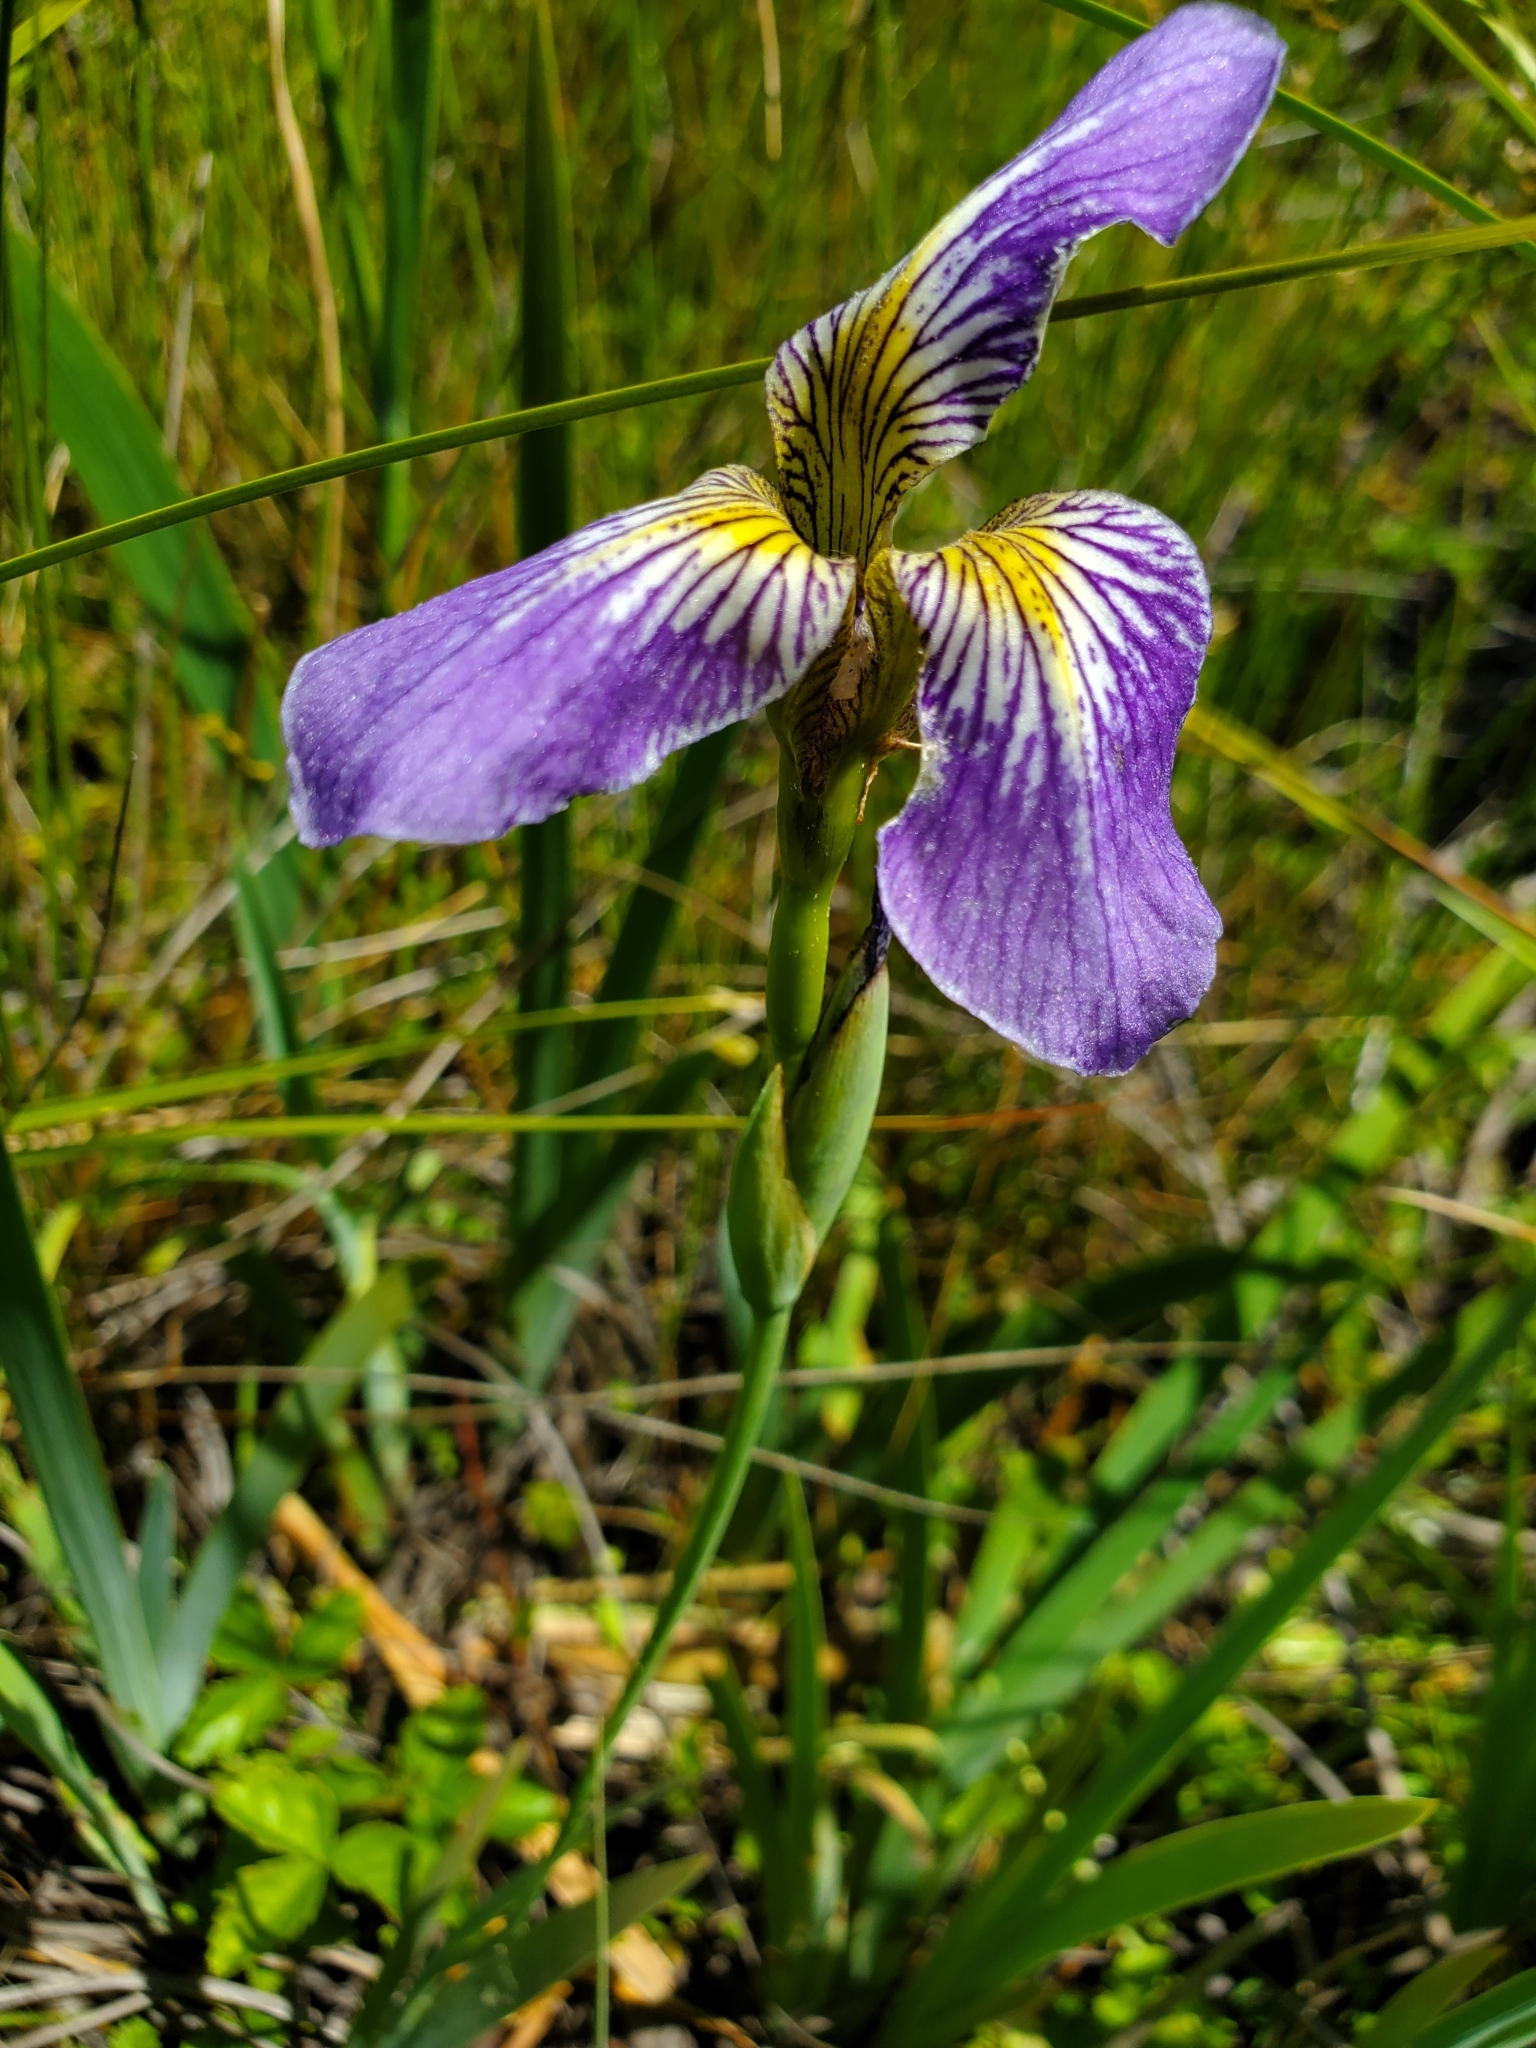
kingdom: Plantae
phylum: Tracheophyta
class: Liliopsida
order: Asparagales
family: Iridaceae
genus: Iris
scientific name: Iris versicolor
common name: Purple iris
